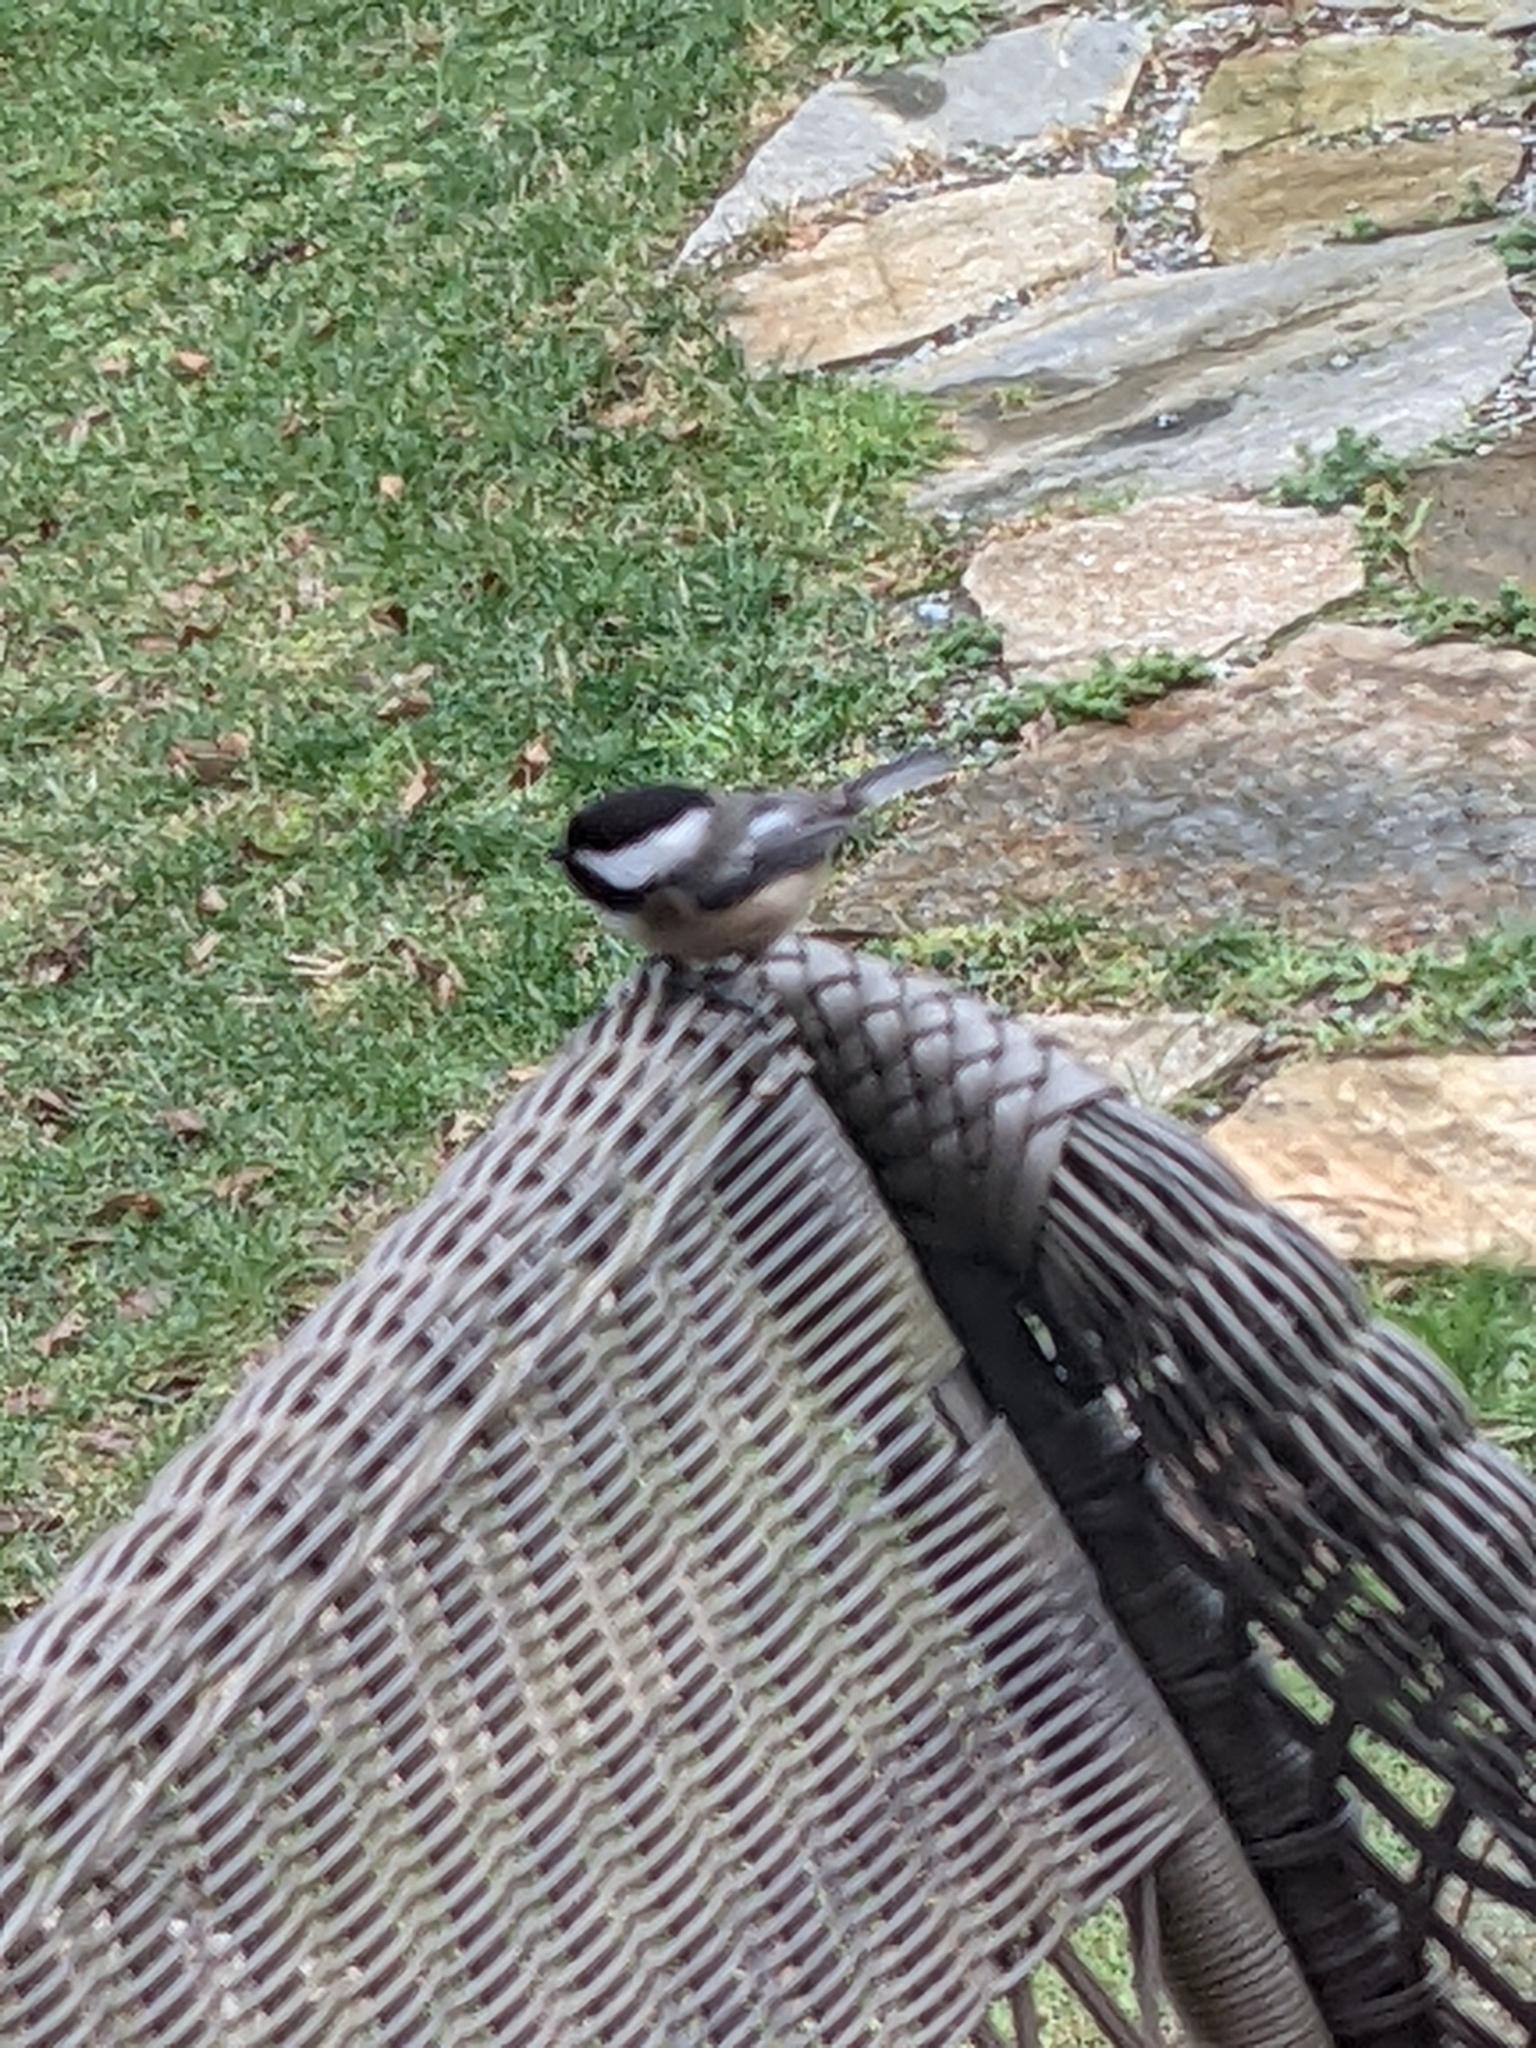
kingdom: Animalia
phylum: Chordata
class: Aves
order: Passeriformes
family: Paridae
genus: Poecile
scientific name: Poecile atricapillus
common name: Black-capped chickadee
